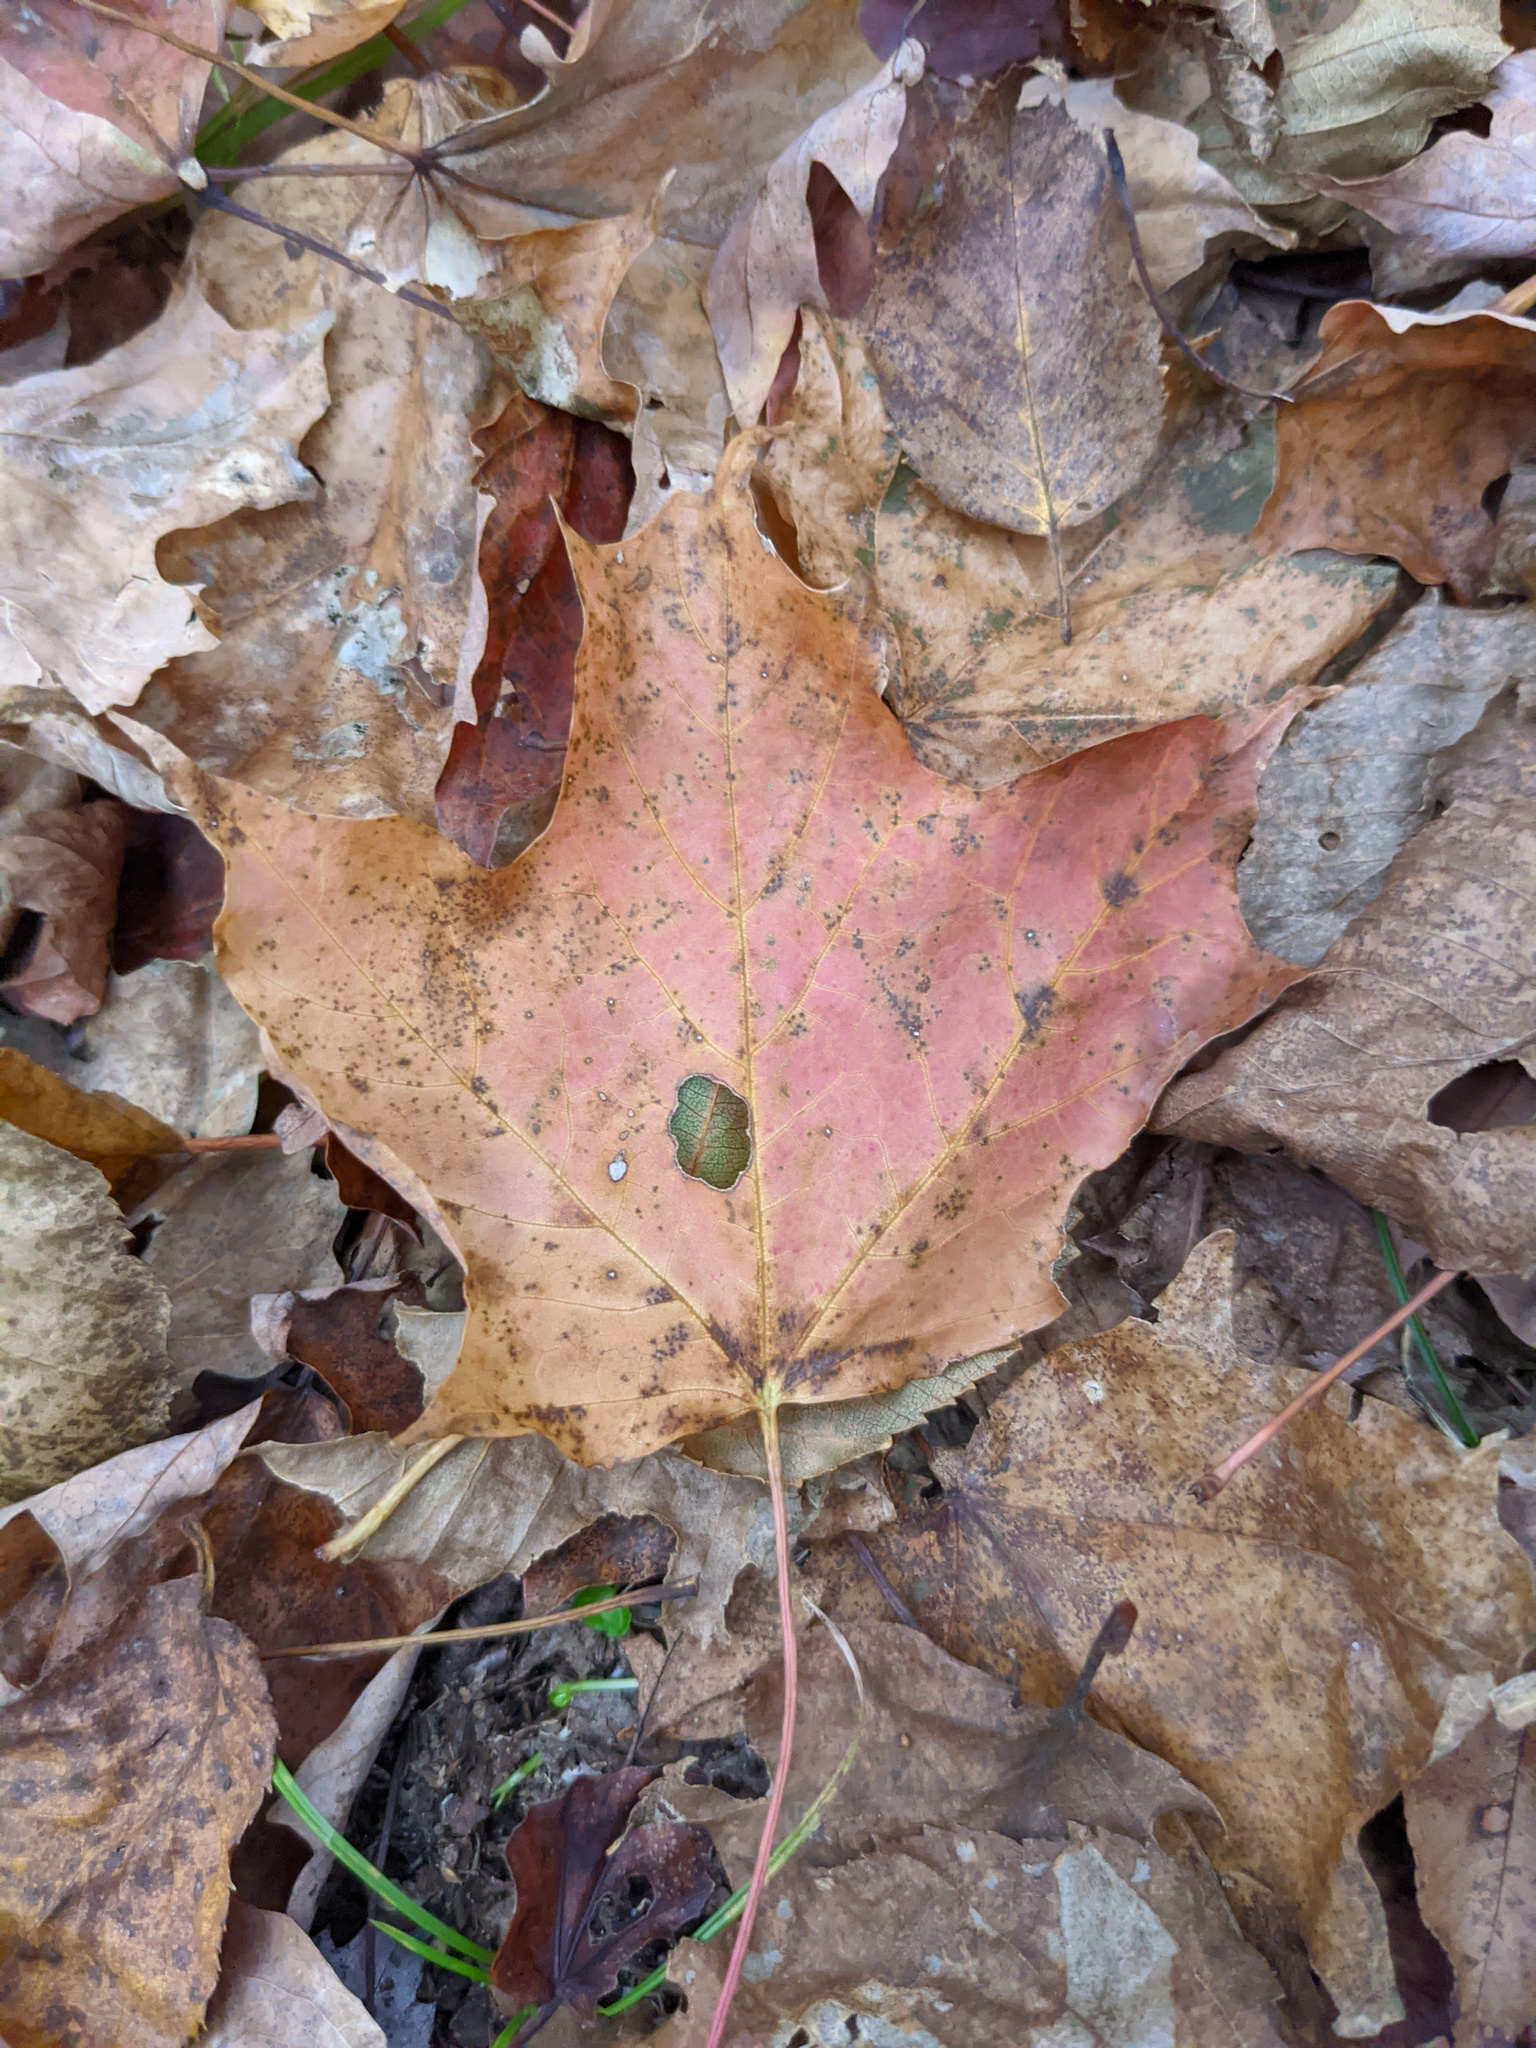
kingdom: Plantae
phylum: Tracheophyta
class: Magnoliopsida
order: Sapindales
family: Sapindaceae
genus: Acer
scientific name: Acer saccharum
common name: Sugar maple
